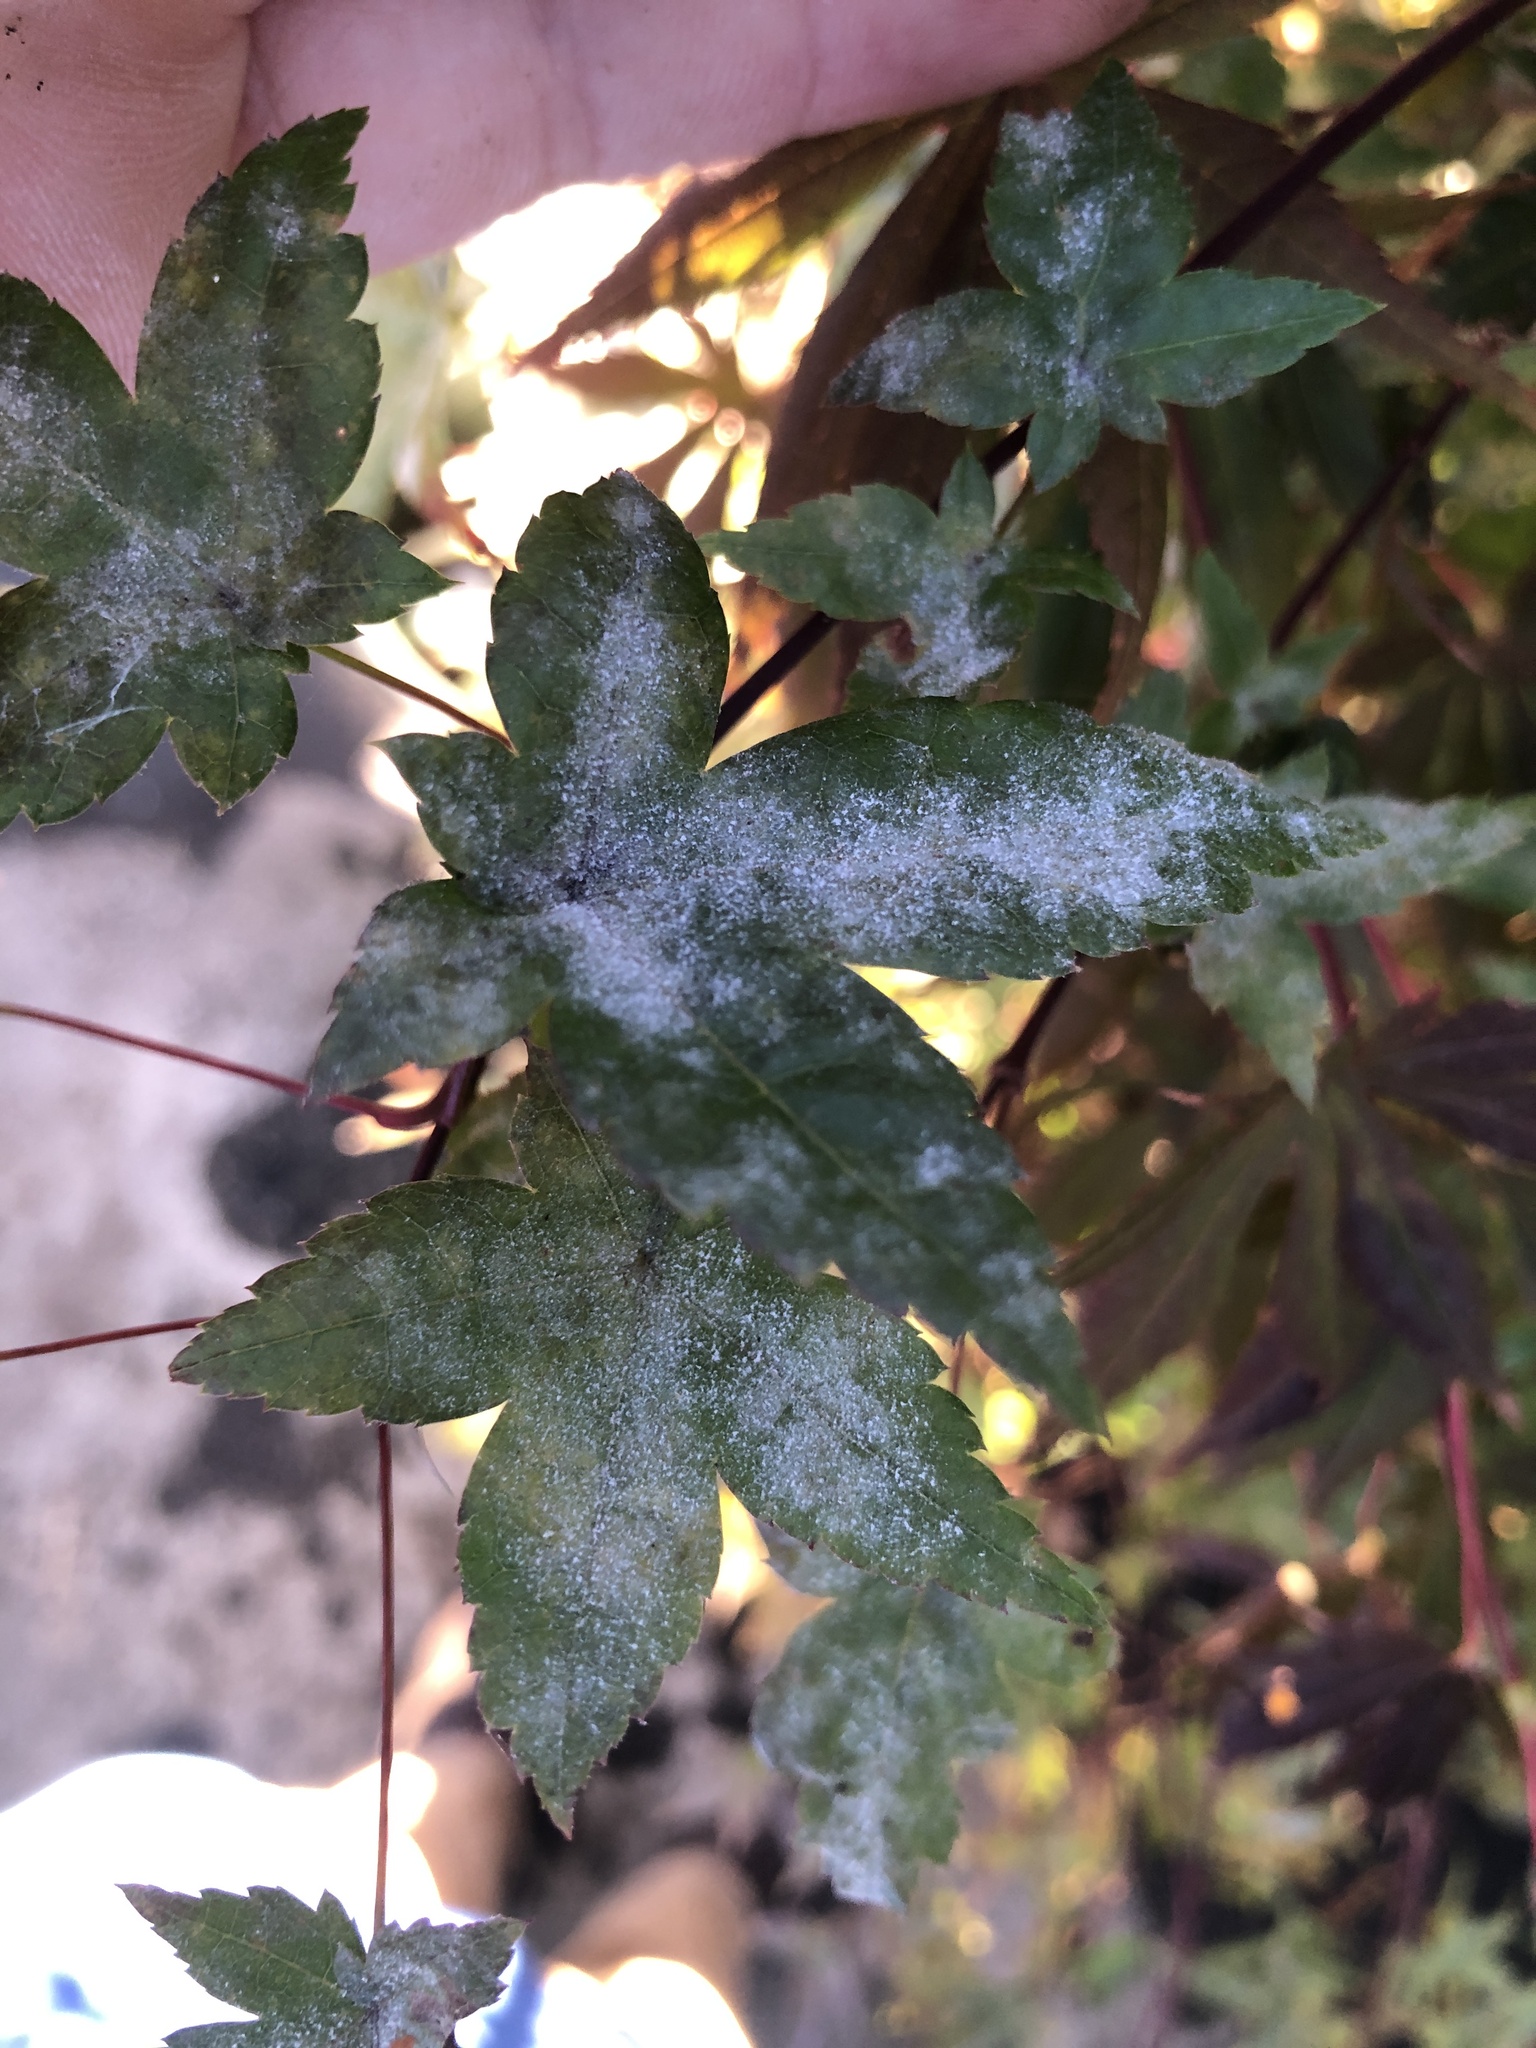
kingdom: Fungi
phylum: Ascomycota
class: Leotiomycetes
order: Helotiales
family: Erysiphaceae
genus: Sawadaea
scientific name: Sawadaea polyfida
